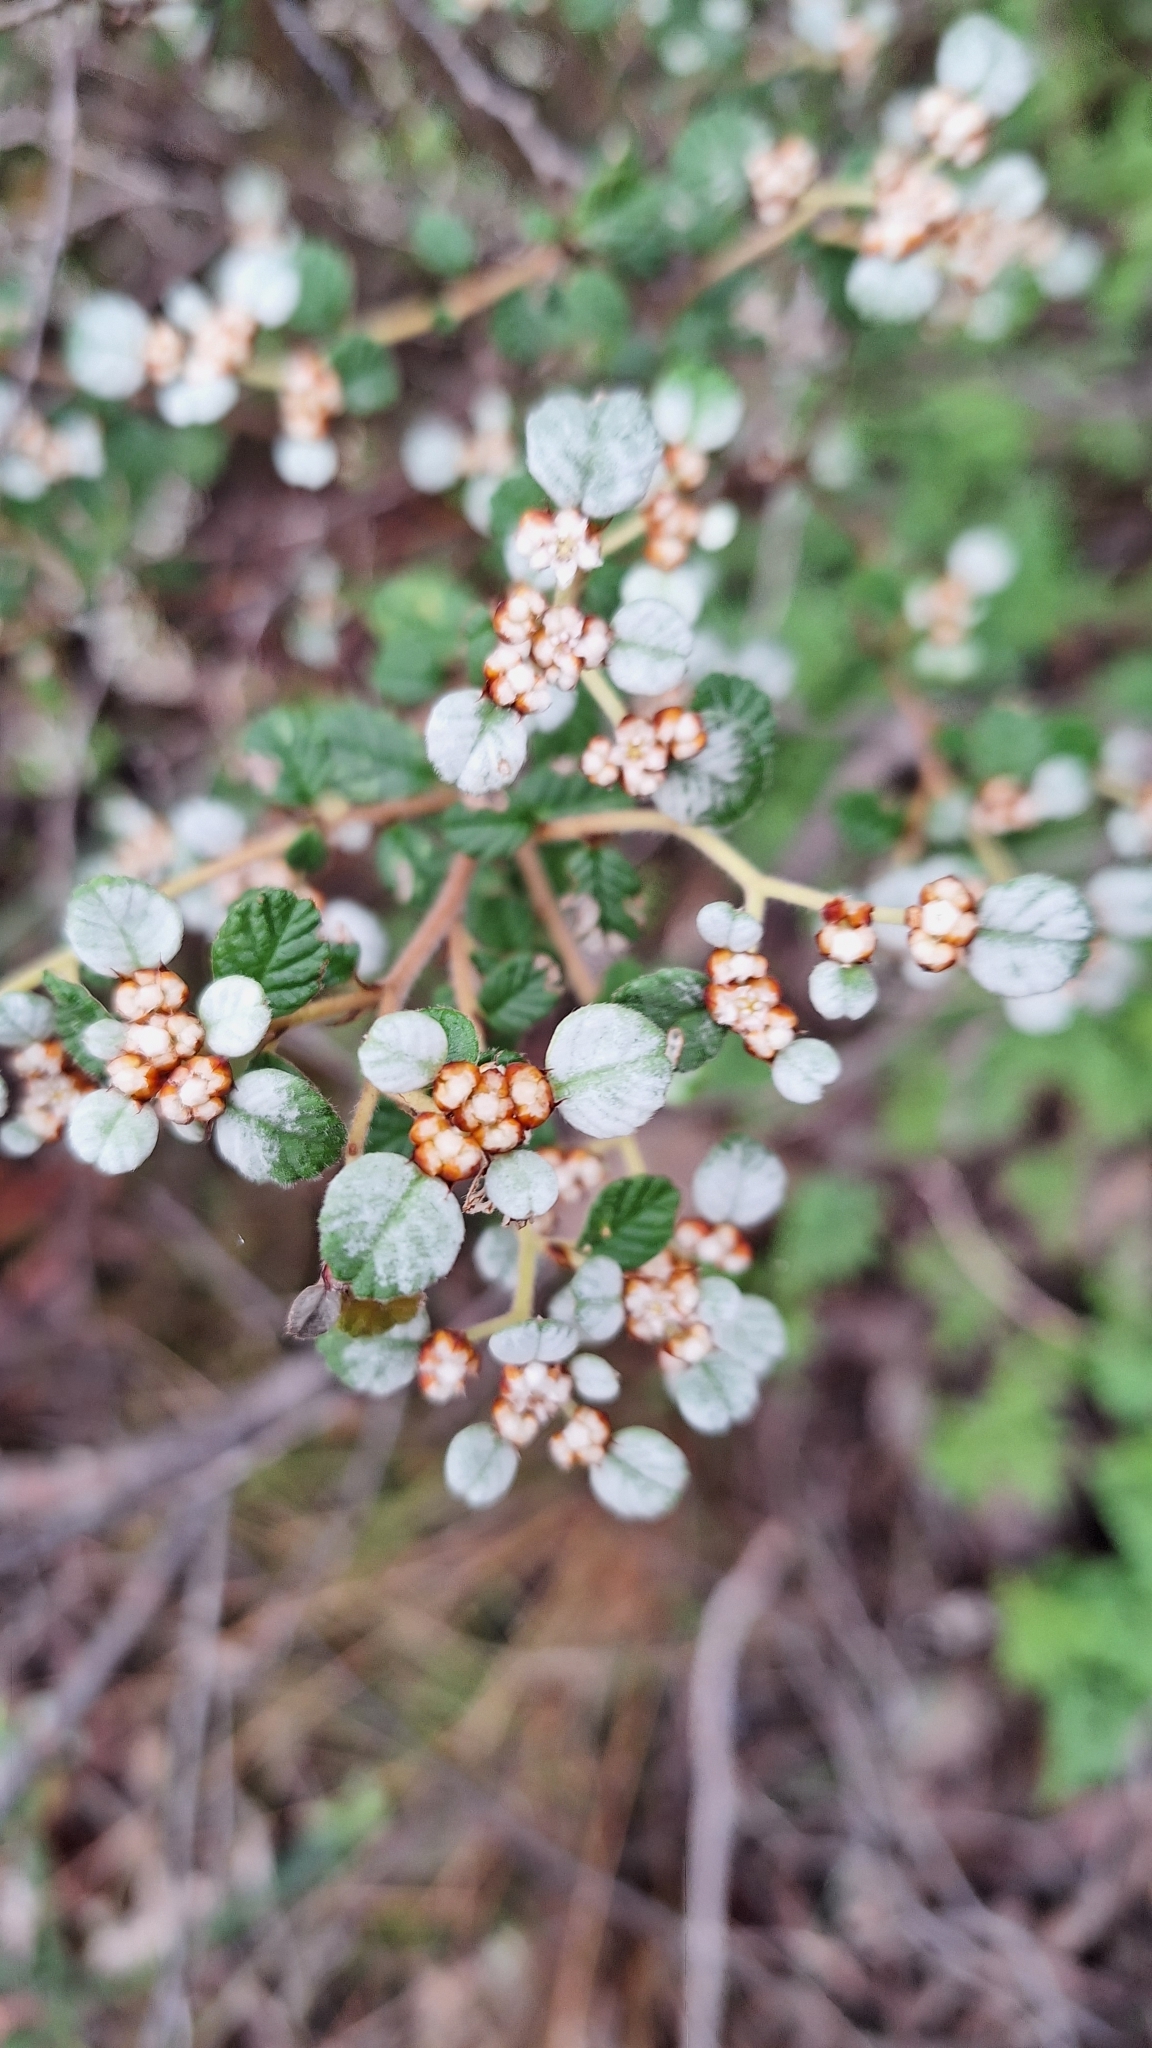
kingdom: Plantae
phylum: Tracheophyta
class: Magnoliopsida
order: Rosales
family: Rhamnaceae
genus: Spyridium
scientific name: Spyridium parvifolium
